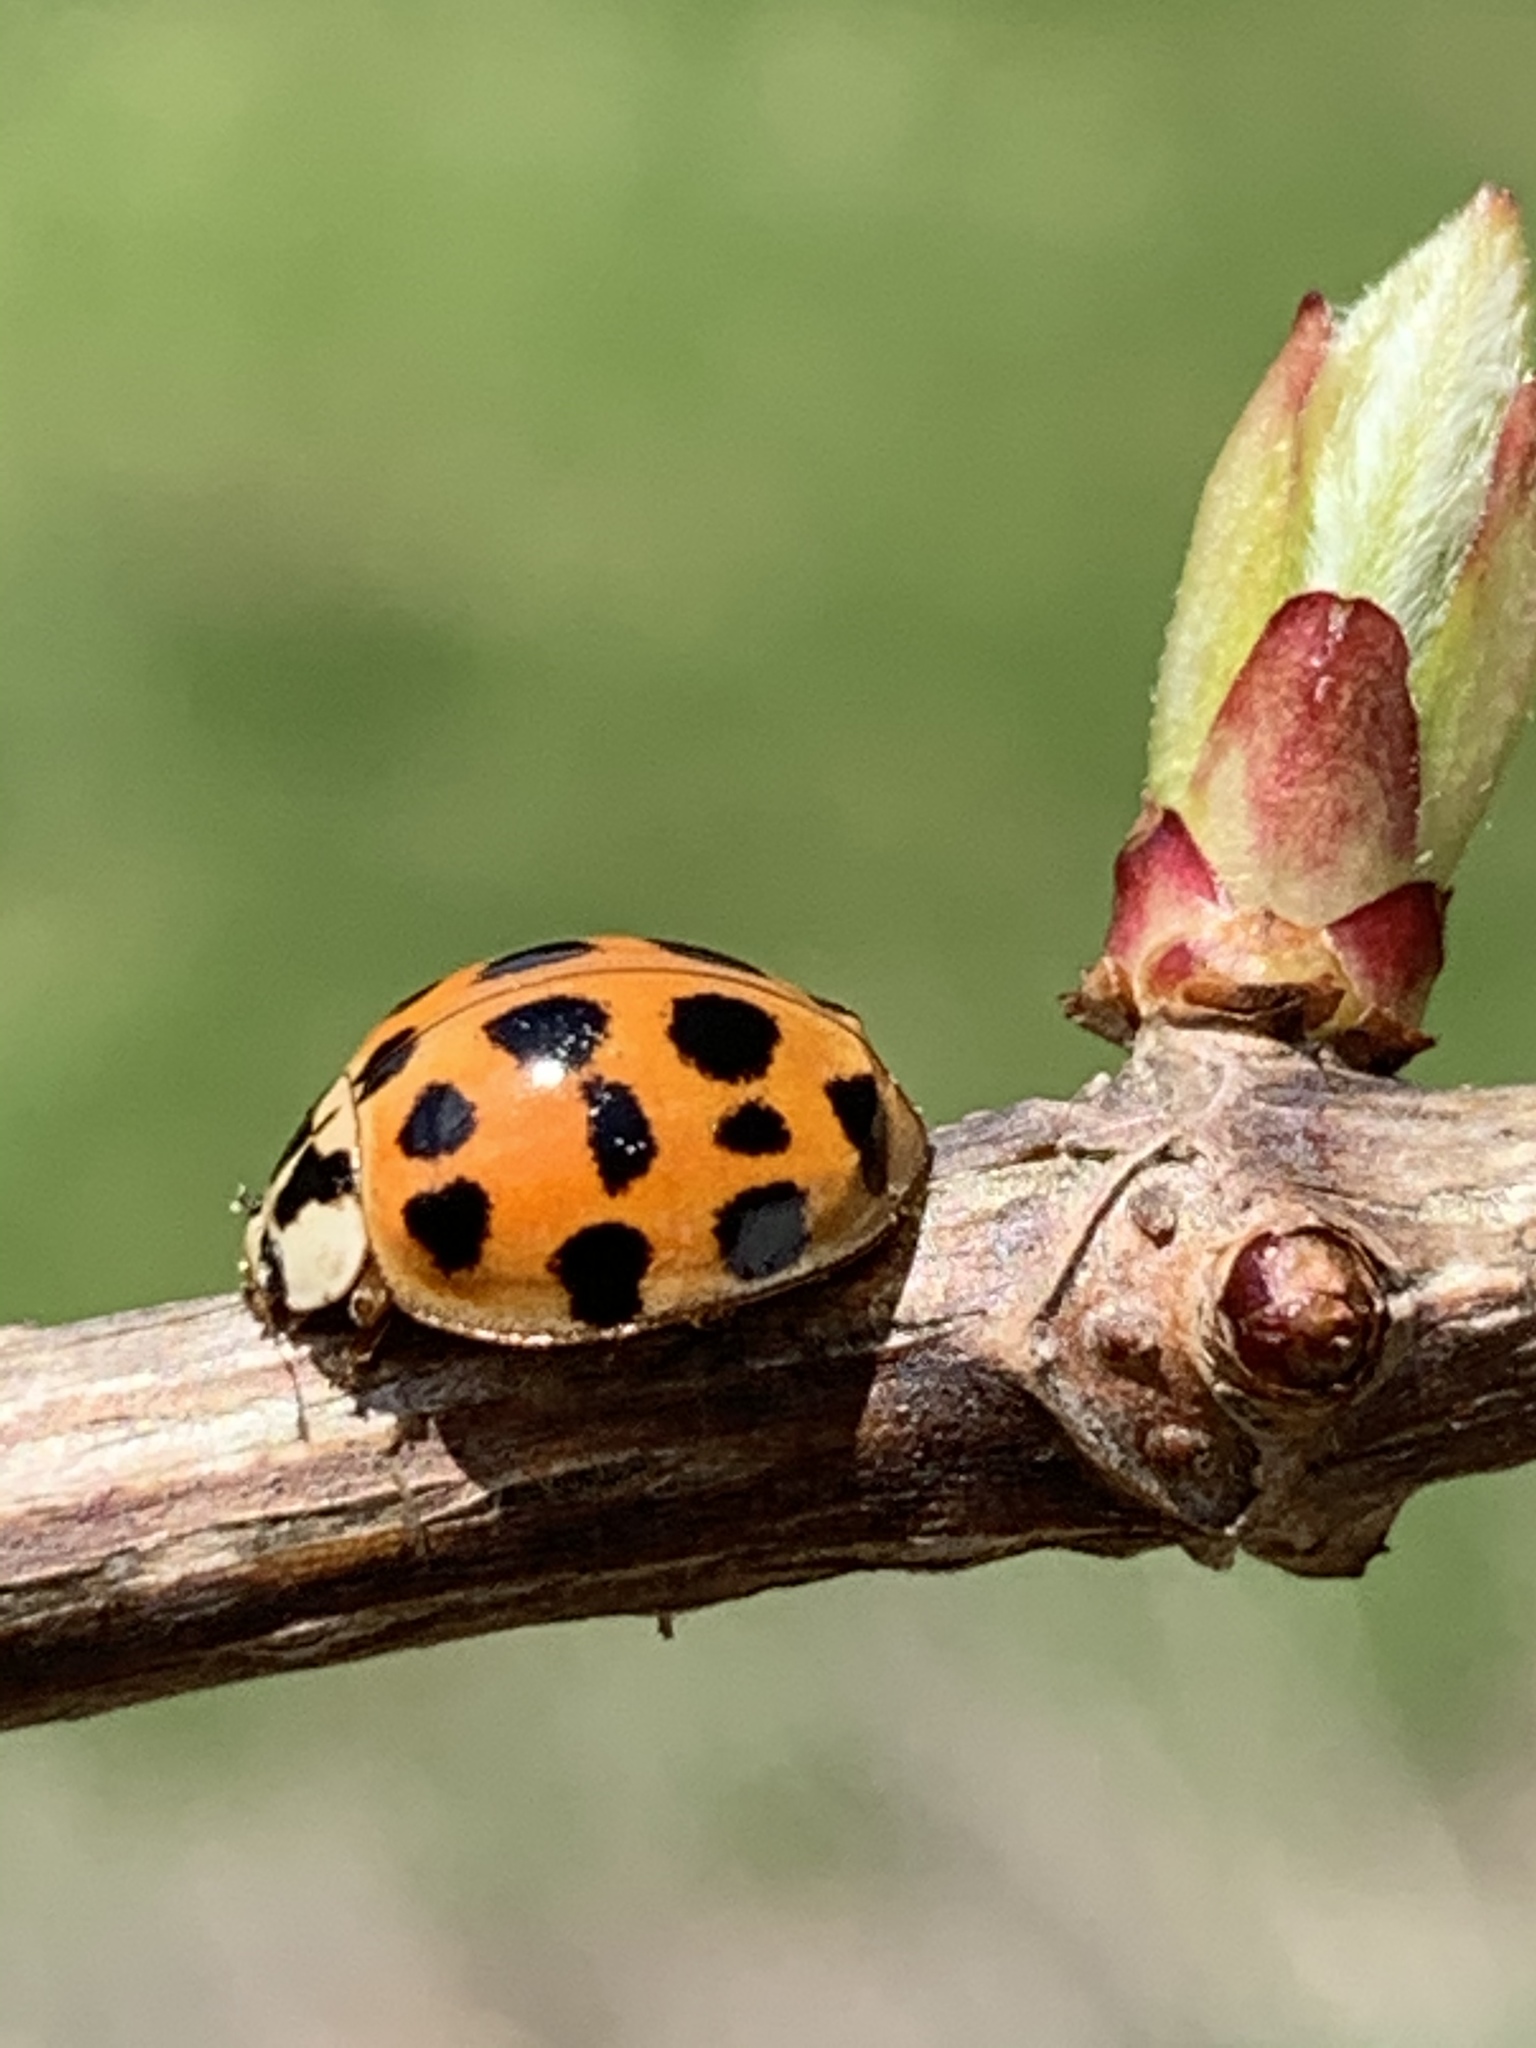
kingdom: Animalia
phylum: Arthropoda
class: Insecta
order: Coleoptera
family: Coccinellidae
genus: Harmonia
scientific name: Harmonia axyridis
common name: Harlequin ladybird
